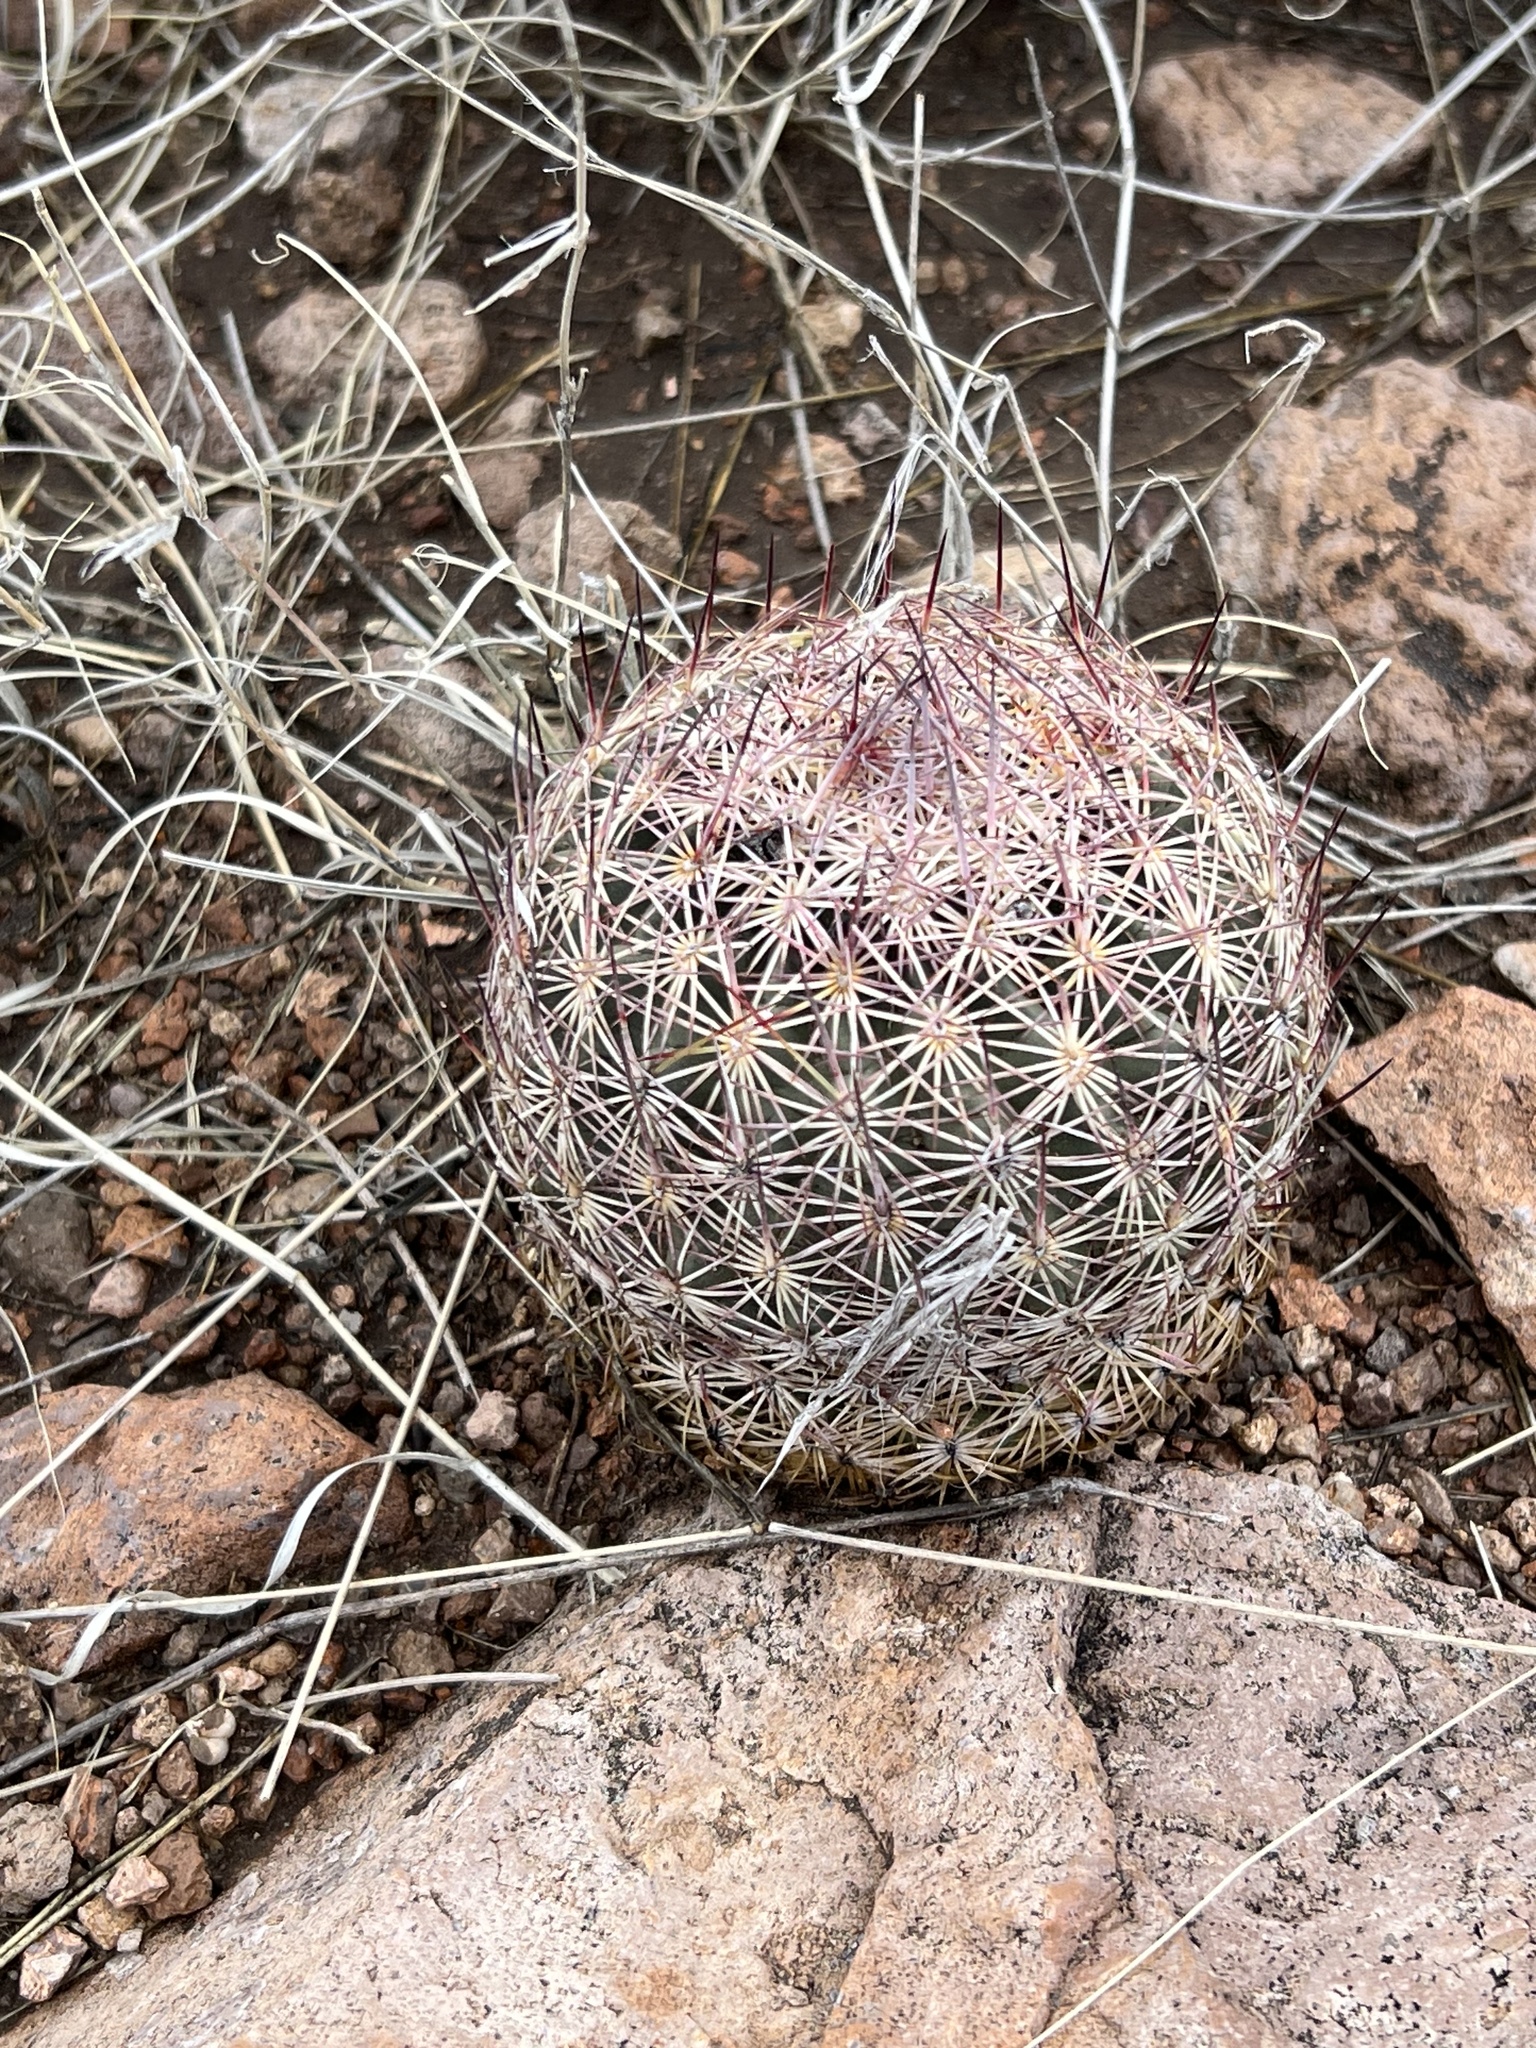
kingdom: Plantae
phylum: Tracheophyta
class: Magnoliopsida
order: Caryophyllales
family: Cactaceae
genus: Sclerocactus
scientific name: Sclerocactus johnsonii
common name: Eight-spine fishhook cactus
